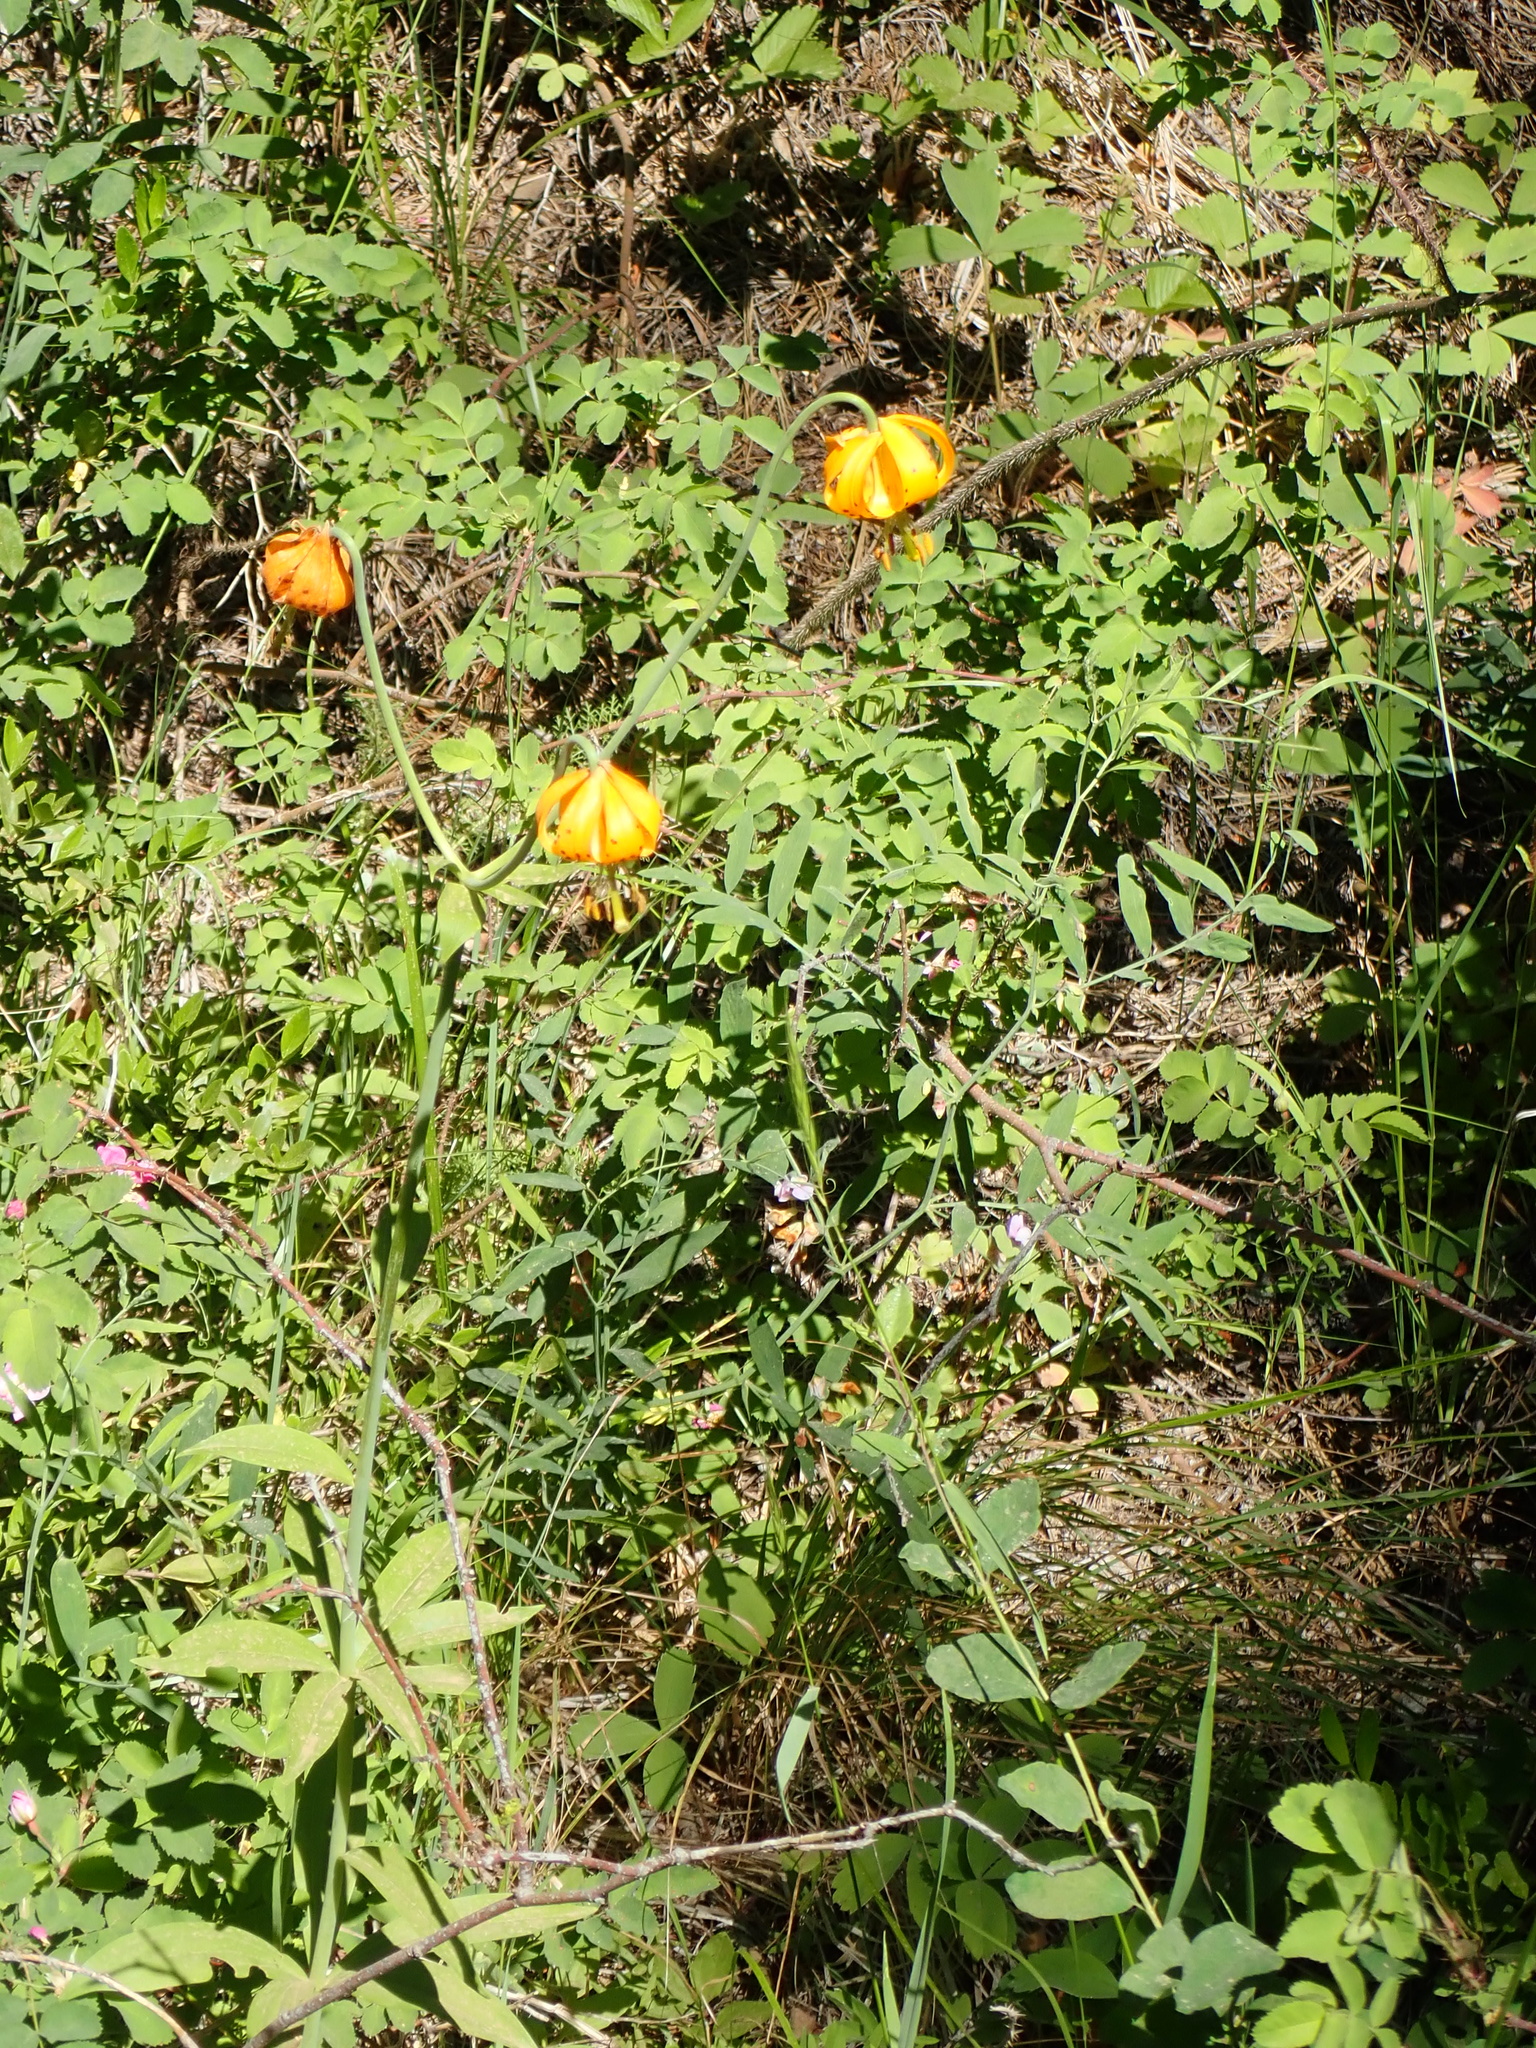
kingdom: Plantae
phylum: Tracheophyta
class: Liliopsida
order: Liliales
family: Liliaceae
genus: Lilium
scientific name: Lilium columbianum
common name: Columbia lily
